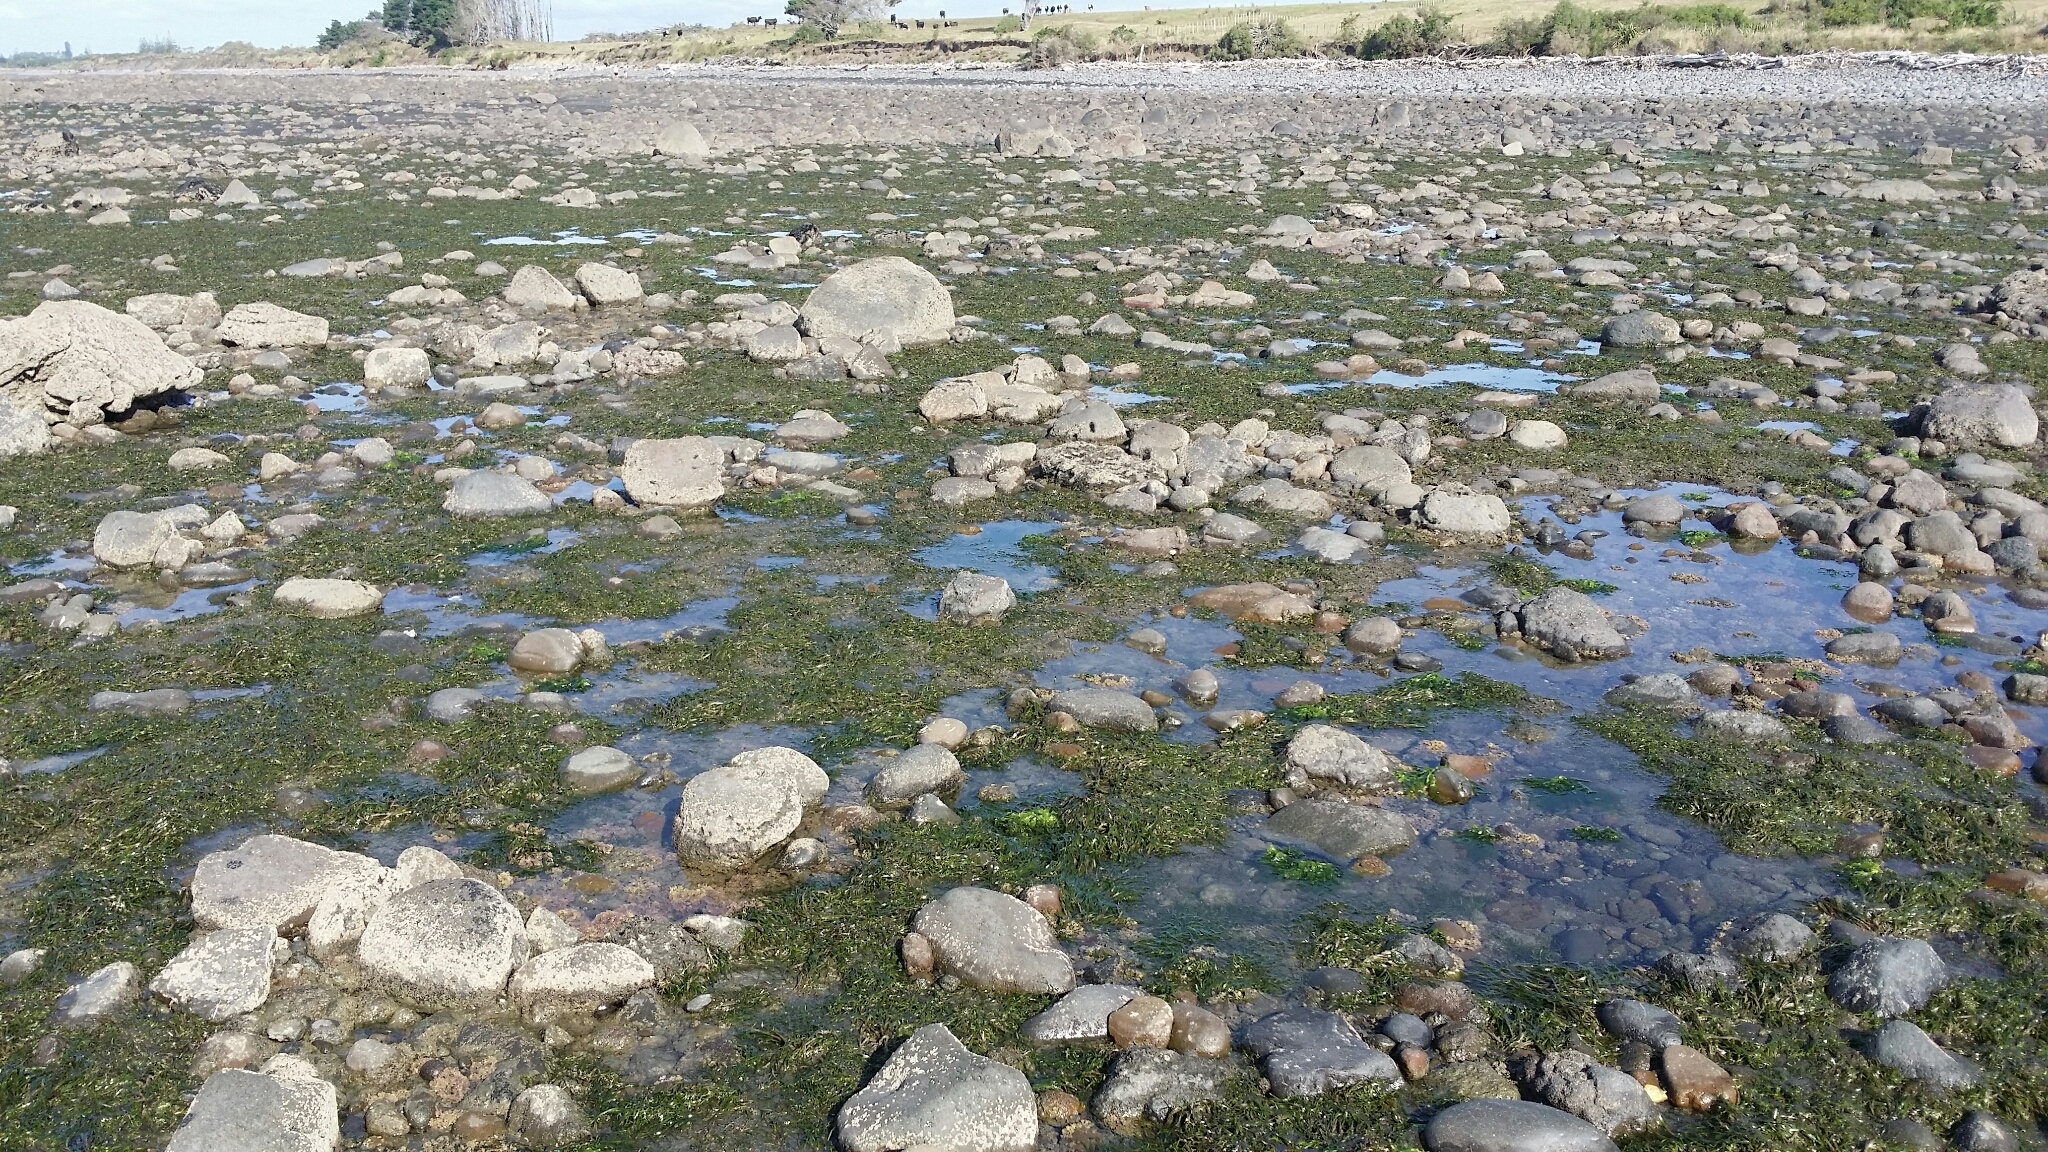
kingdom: Plantae
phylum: Tracheophyta
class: Liliopsida
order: Alismatales
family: Zosteraceae
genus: Zostera
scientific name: Zostera muelleri
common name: Species code: zc
